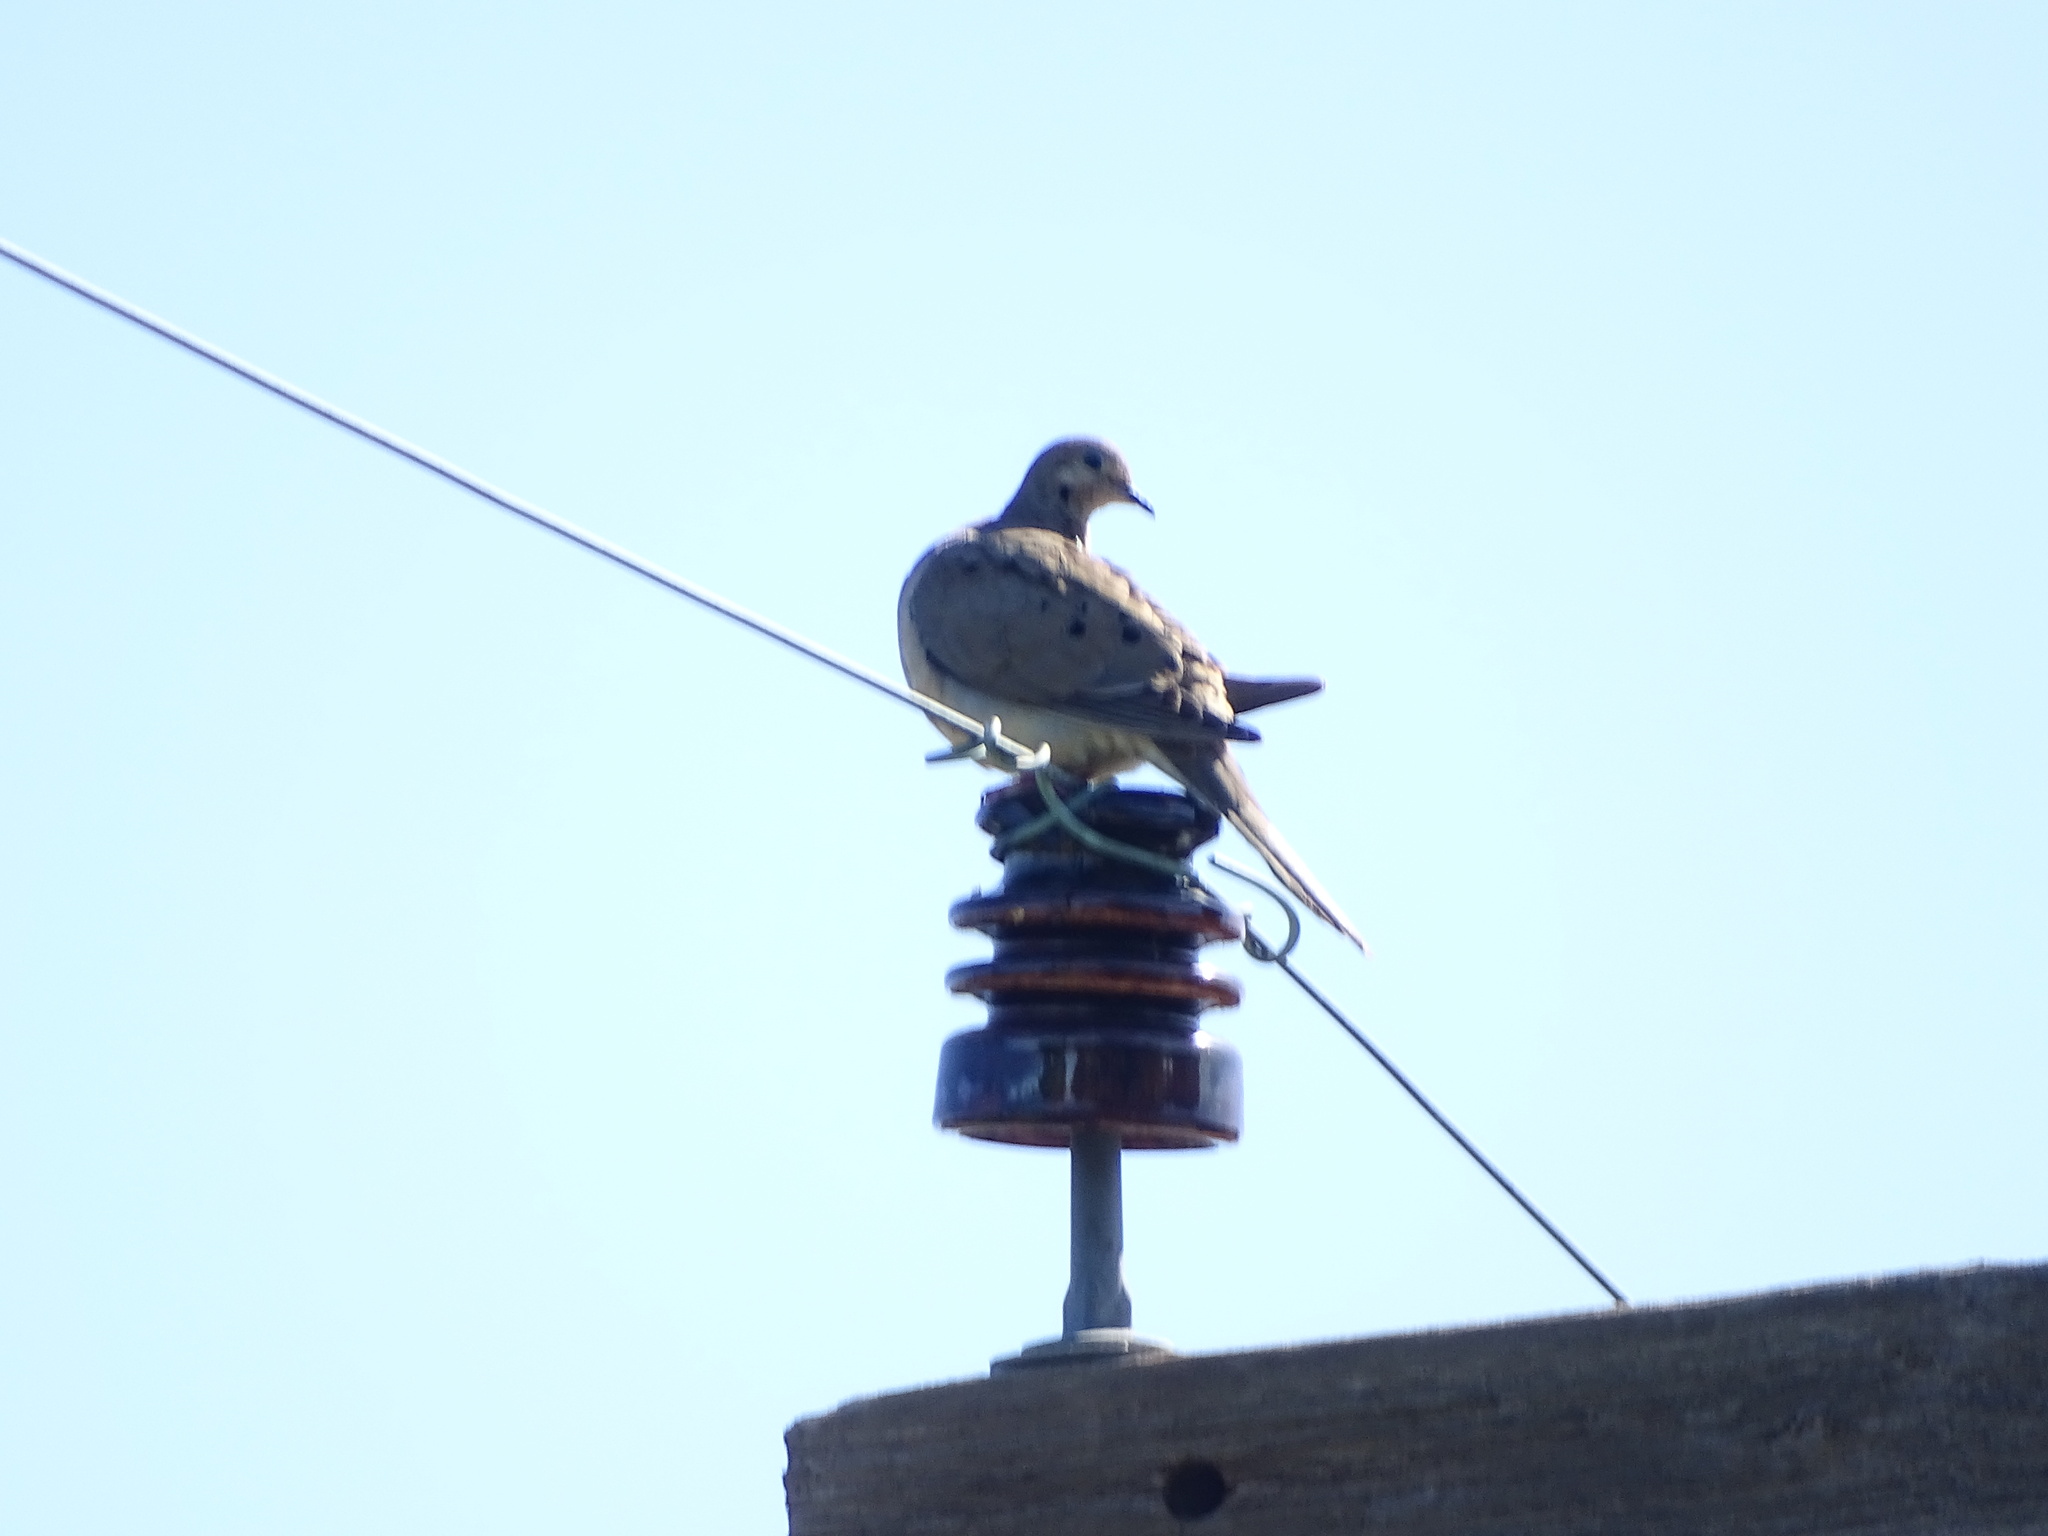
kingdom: Animalia
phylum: Chordata
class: Aves
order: Columbiformes
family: Columbidae
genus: Zenaida
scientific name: Zenaida macroura
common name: Mourning dove
